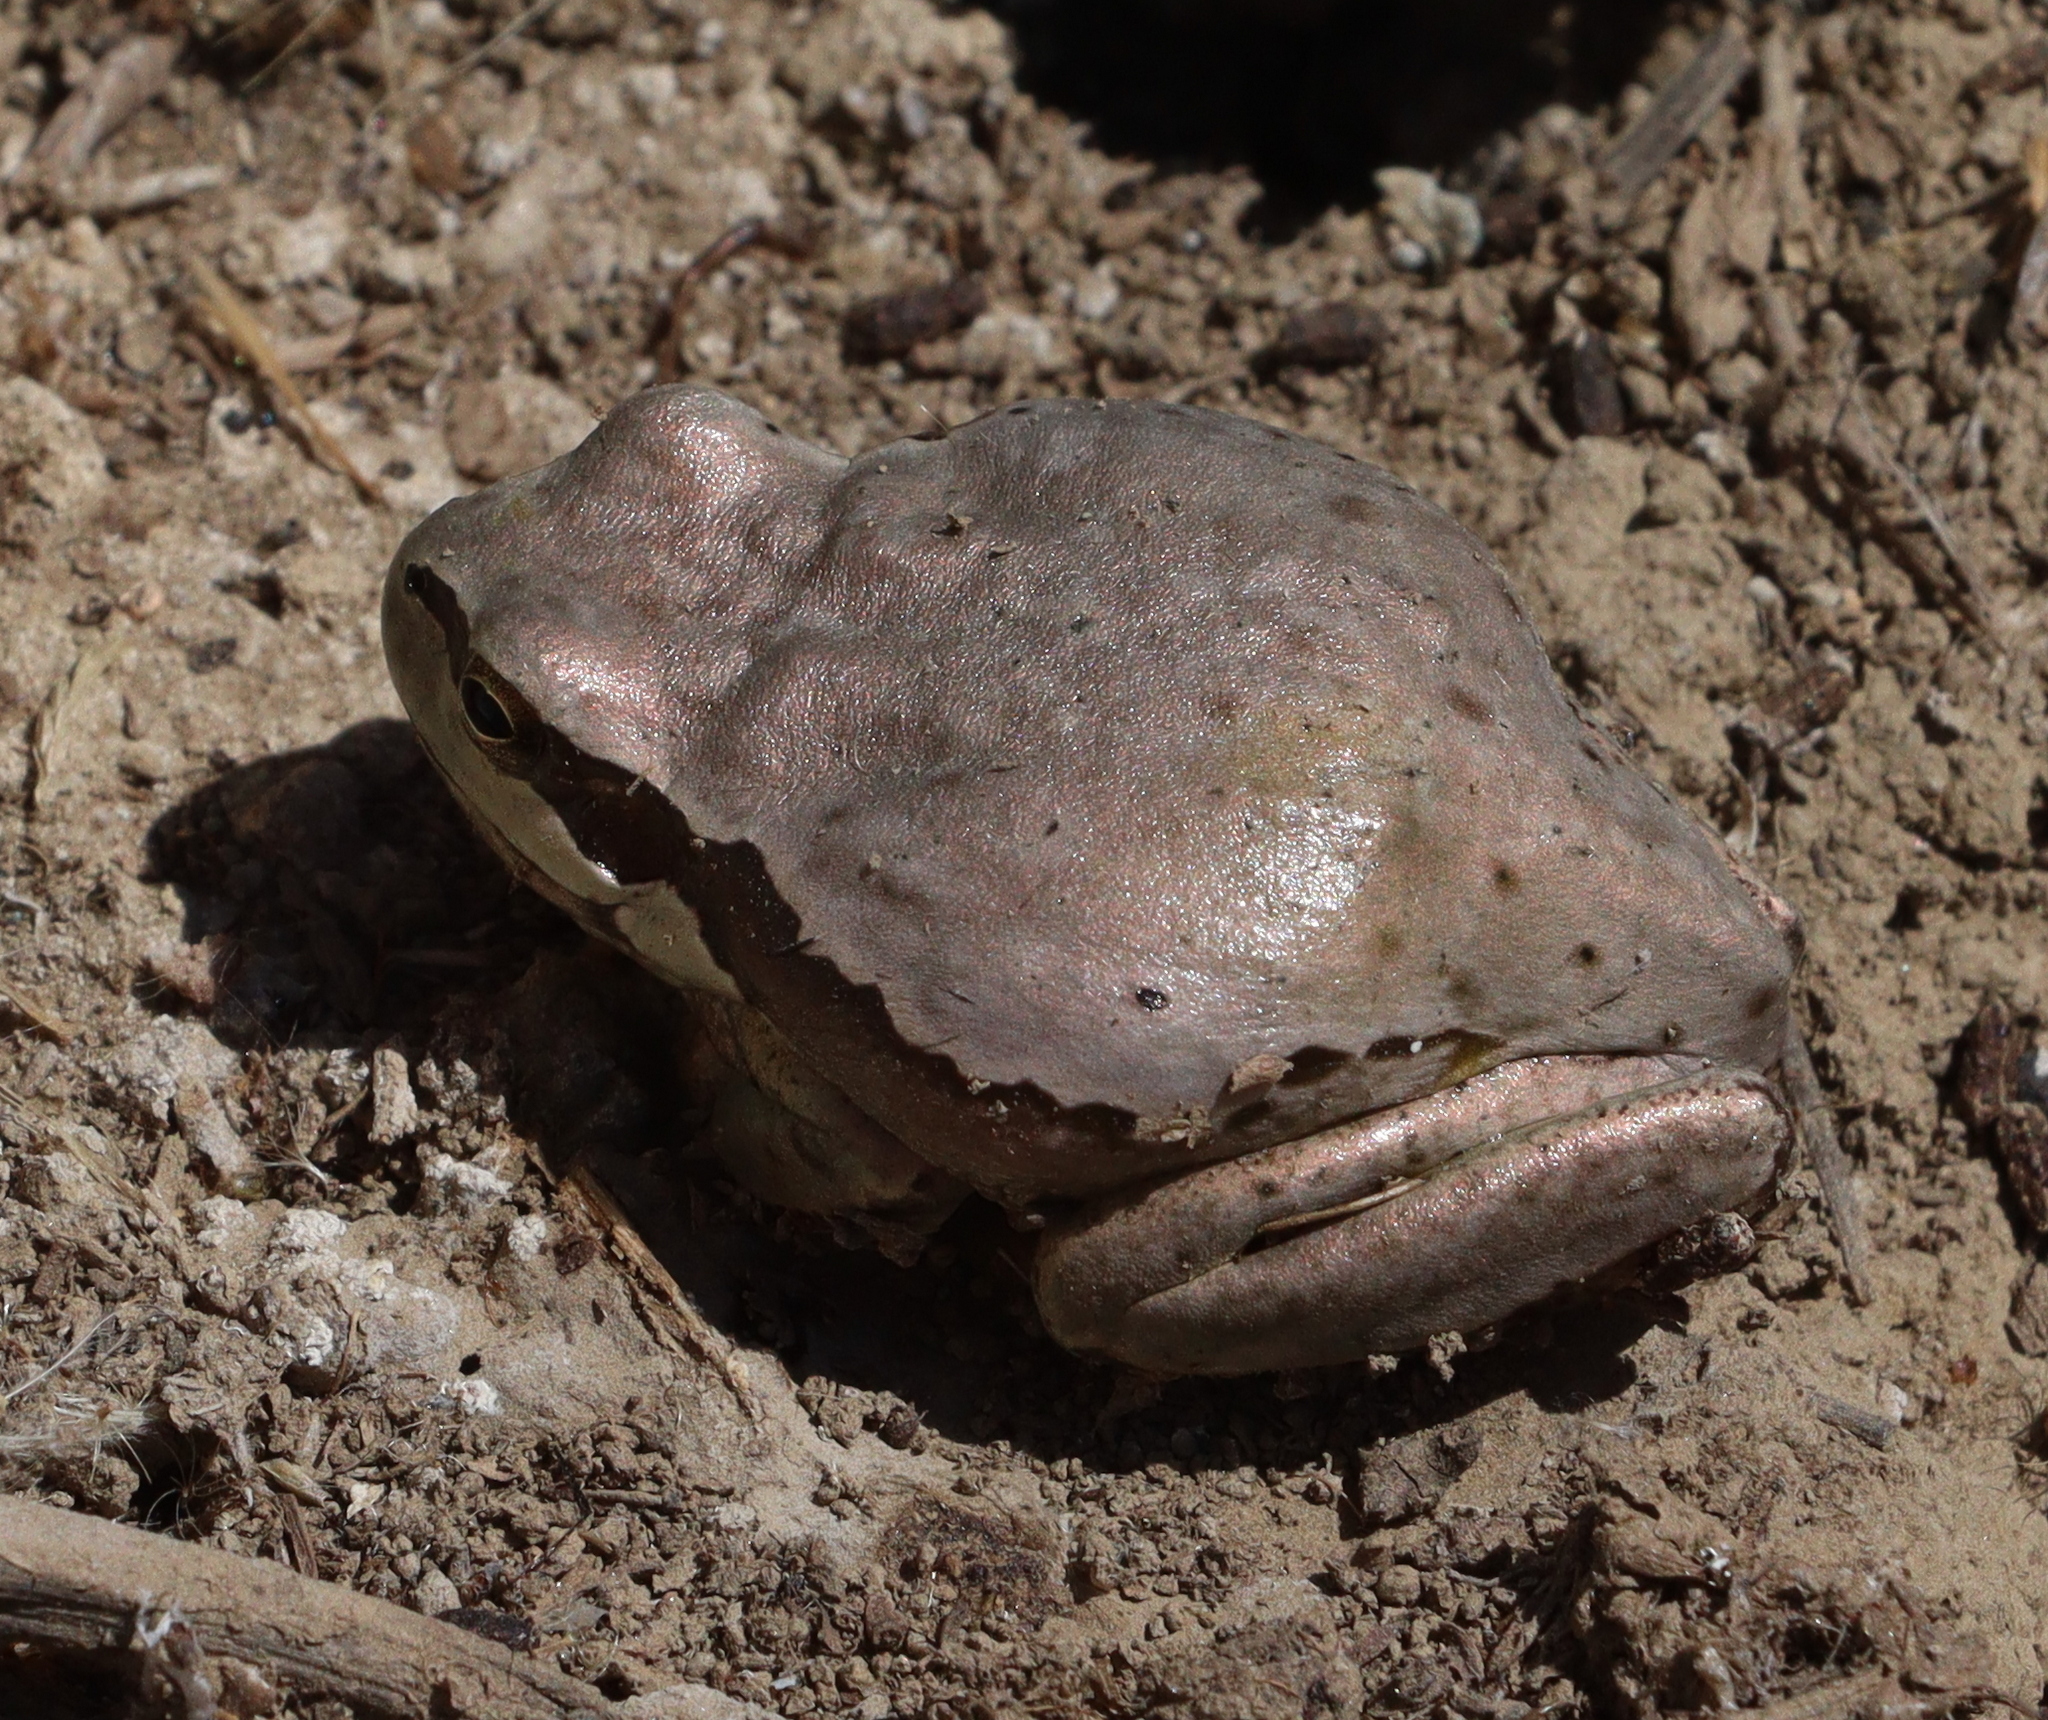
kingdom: Animalia
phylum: Chordata
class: Amphibia
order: Anura
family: Hylidae
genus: Hyla
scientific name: Hyla felixarabica
